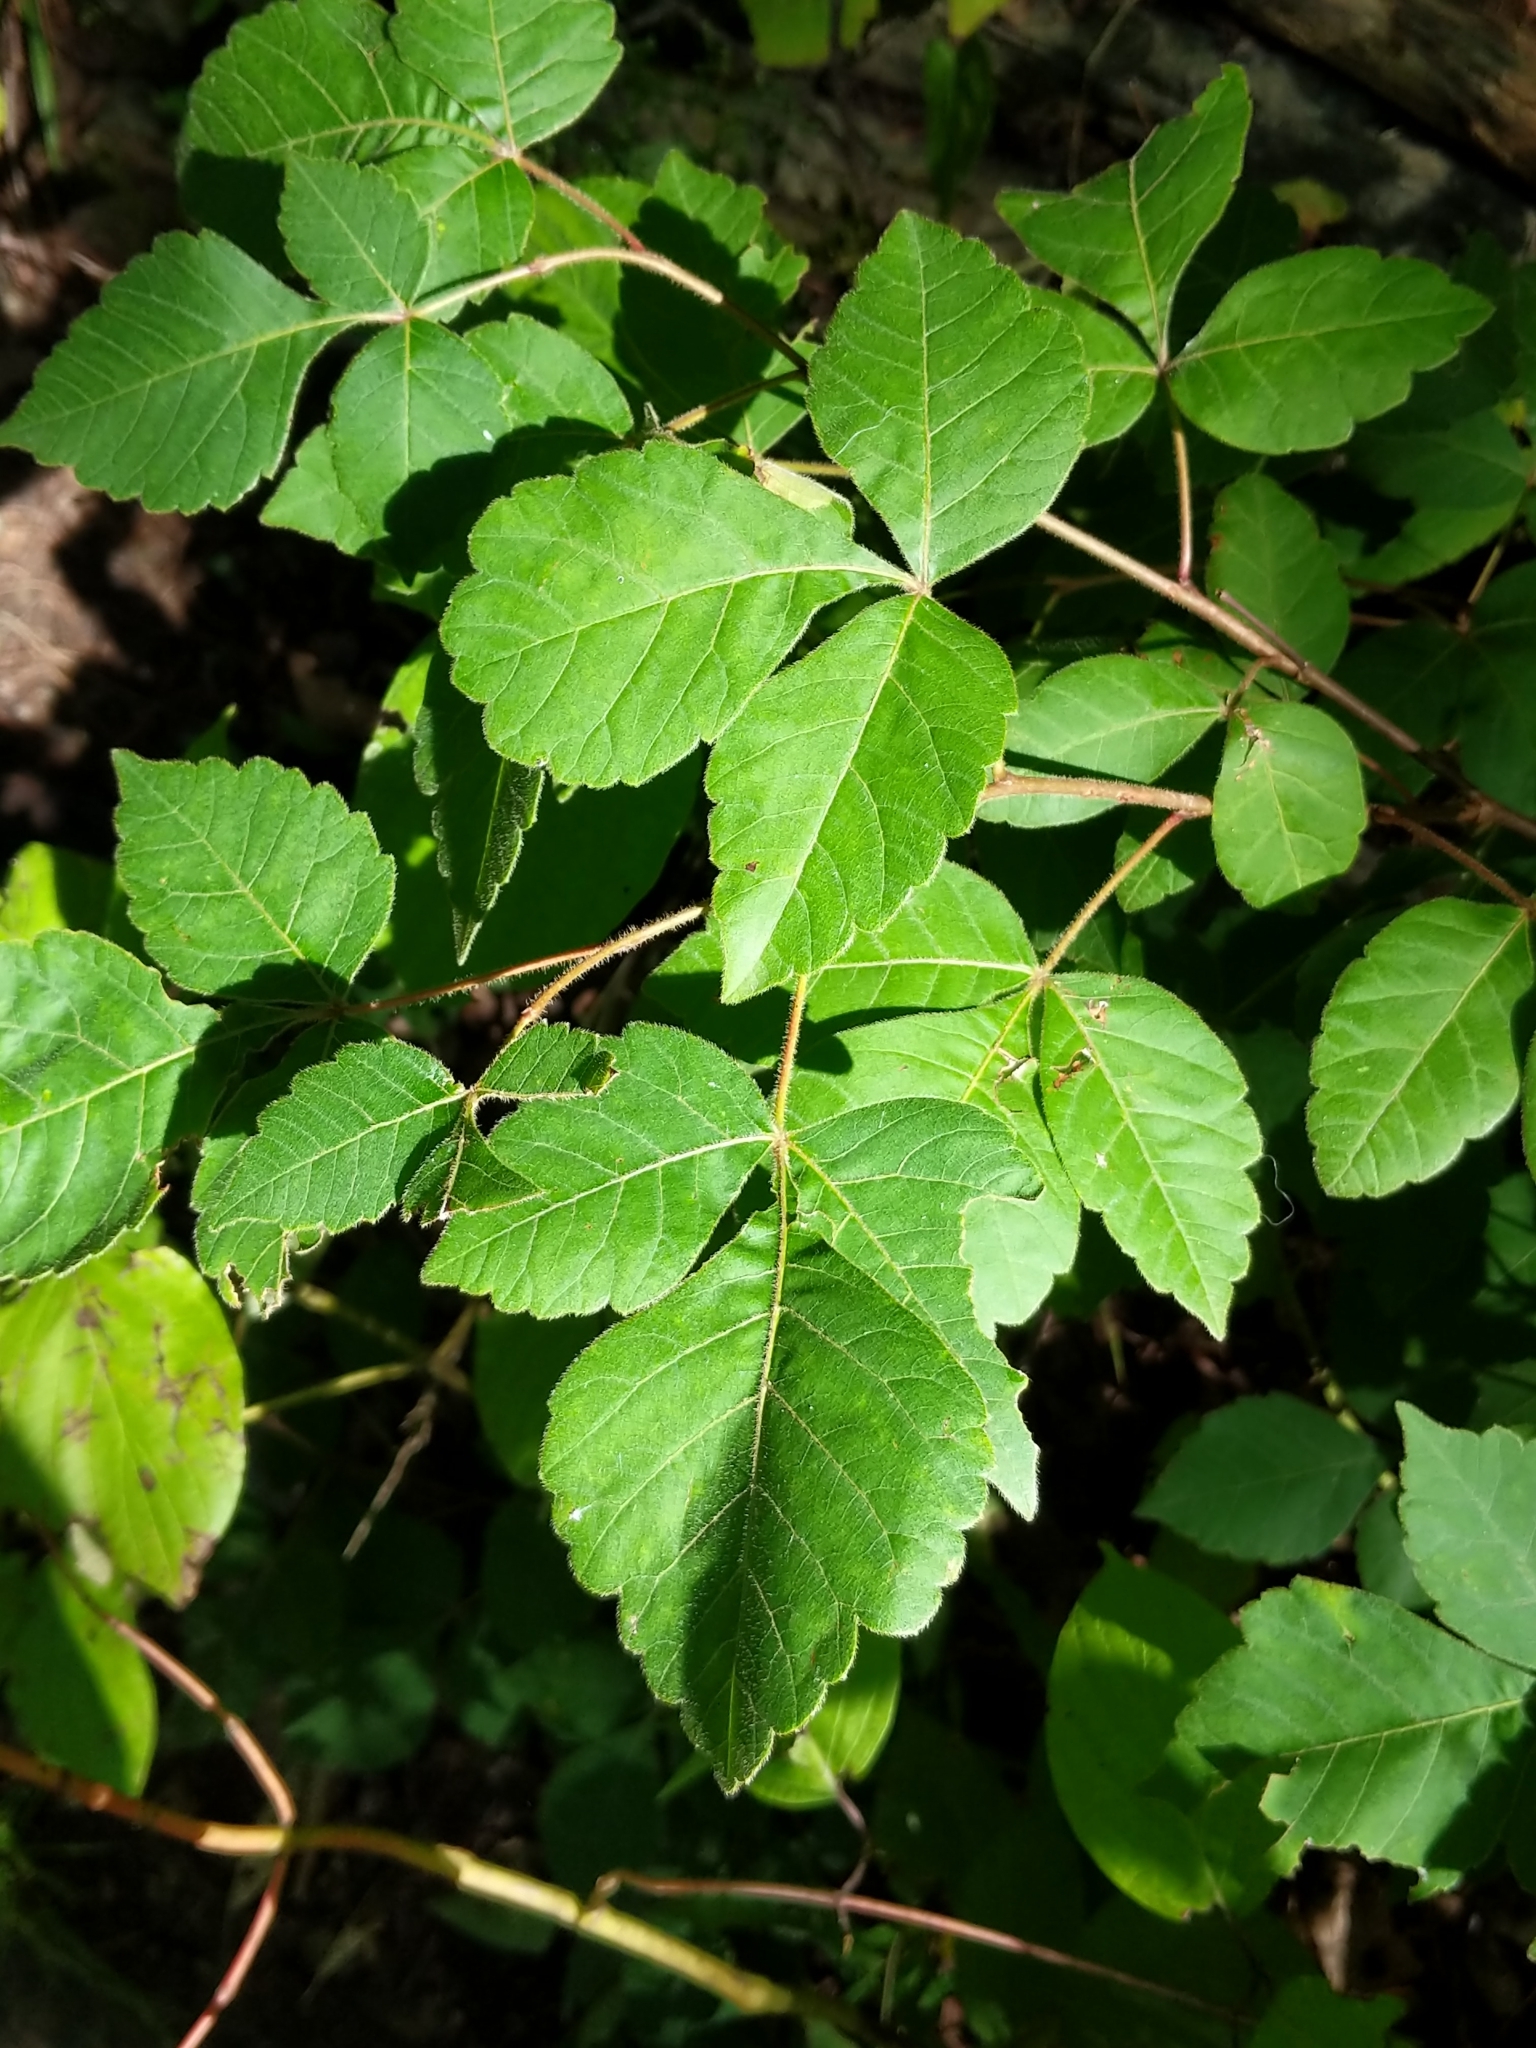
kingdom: Plantae
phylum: Tracheophyta
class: Magnoliopsida
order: Sapindales
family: Anacardiaceae
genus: Rhus
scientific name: Rhus aromatica
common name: Aromatic sumac
